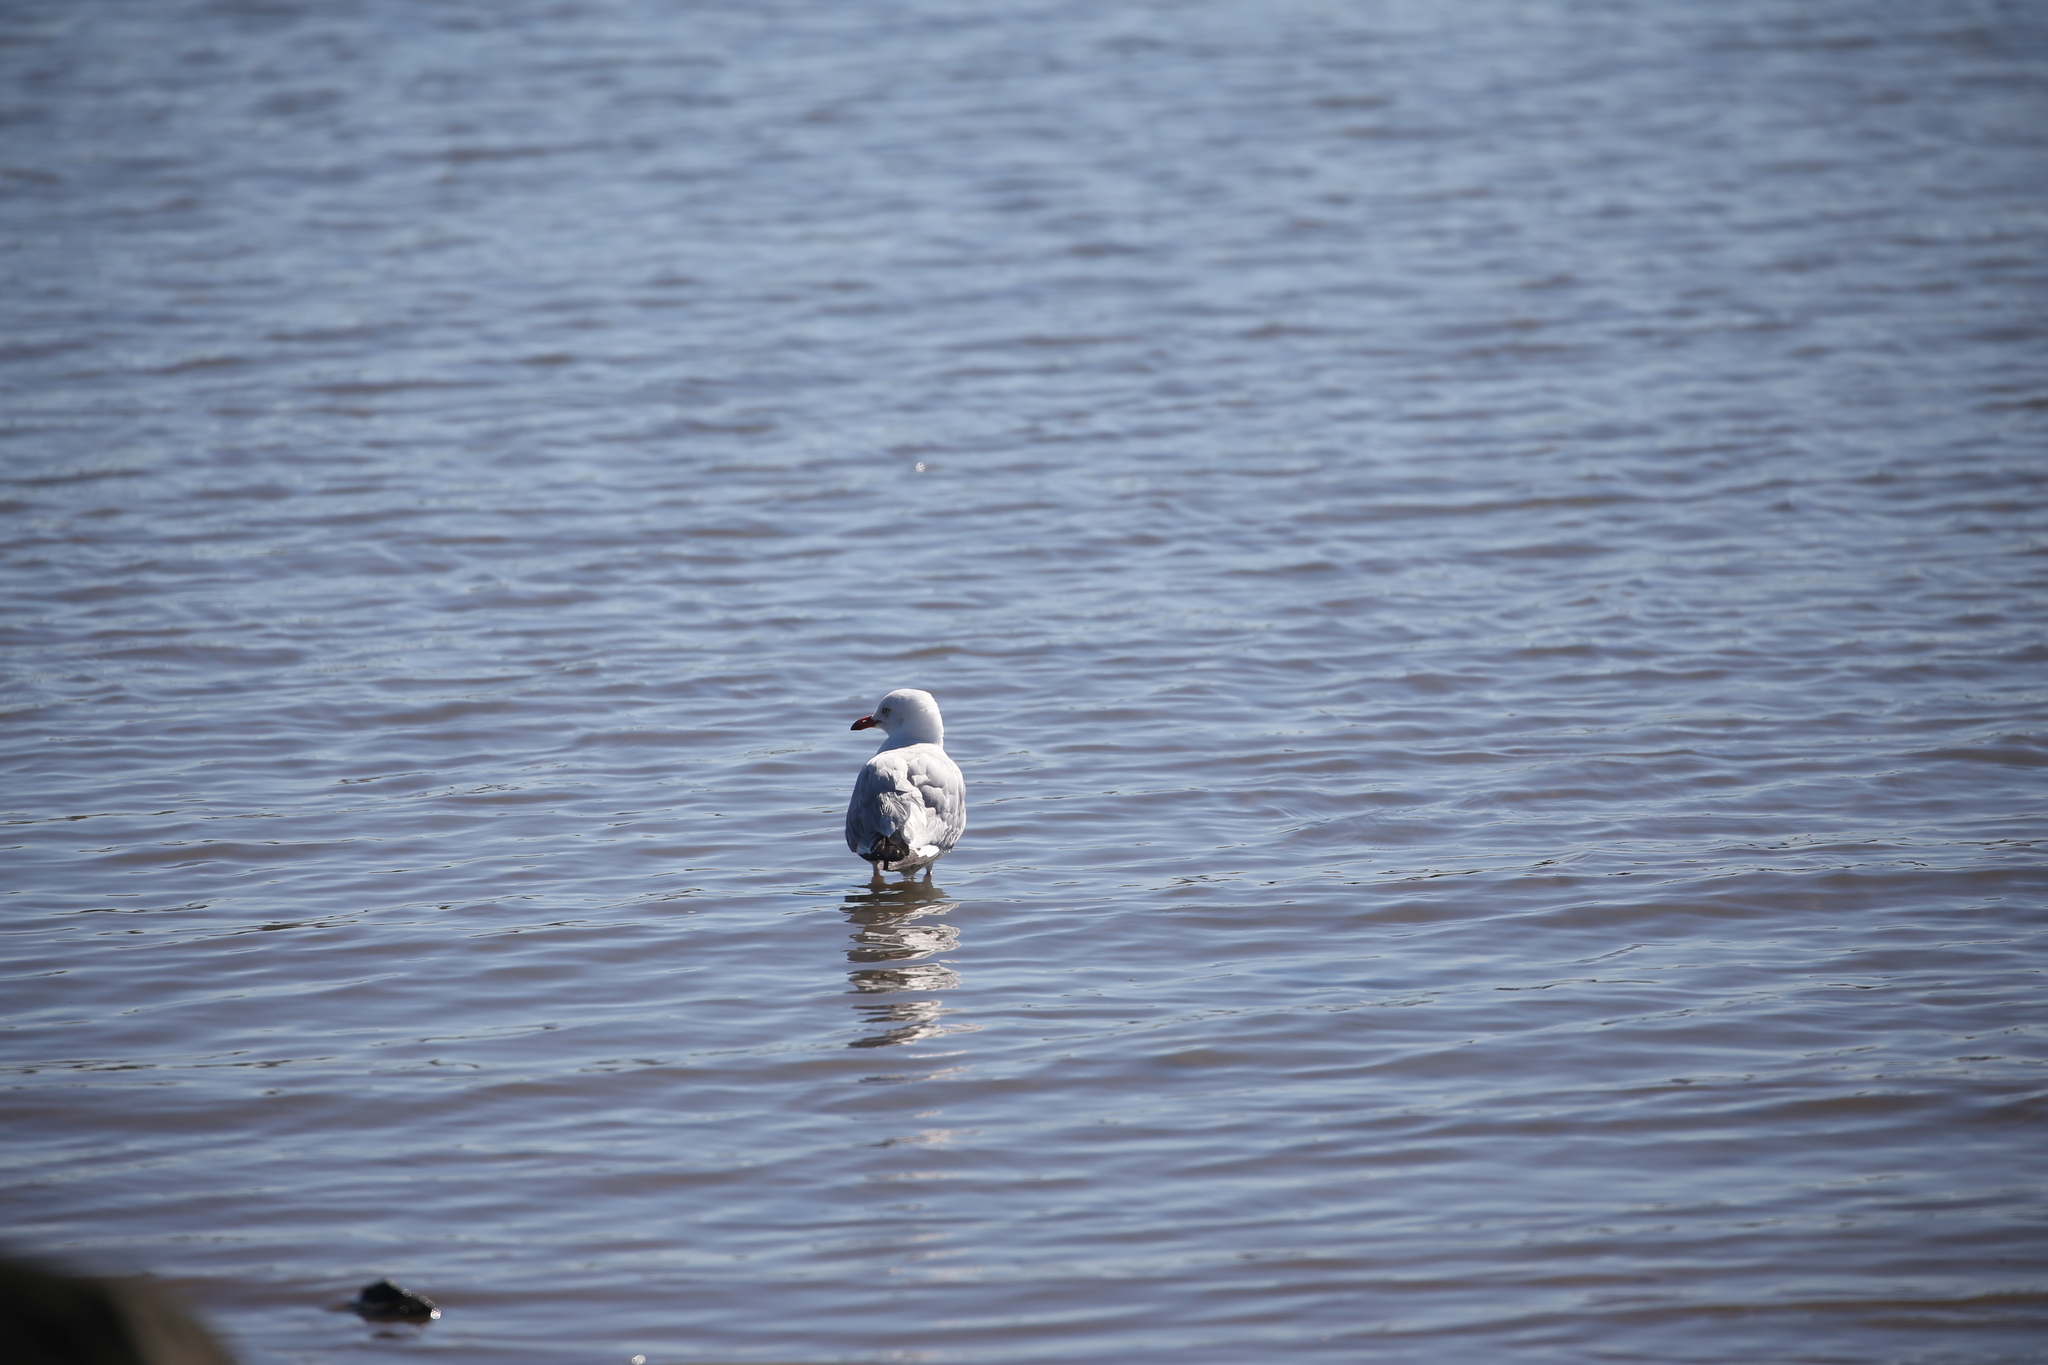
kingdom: Animalia
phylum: Chordata
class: Aves
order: Charadriiformes
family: Laridae
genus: Chroicocephalus
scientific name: Chroicocephalus novaehollandiae
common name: Silver gull
